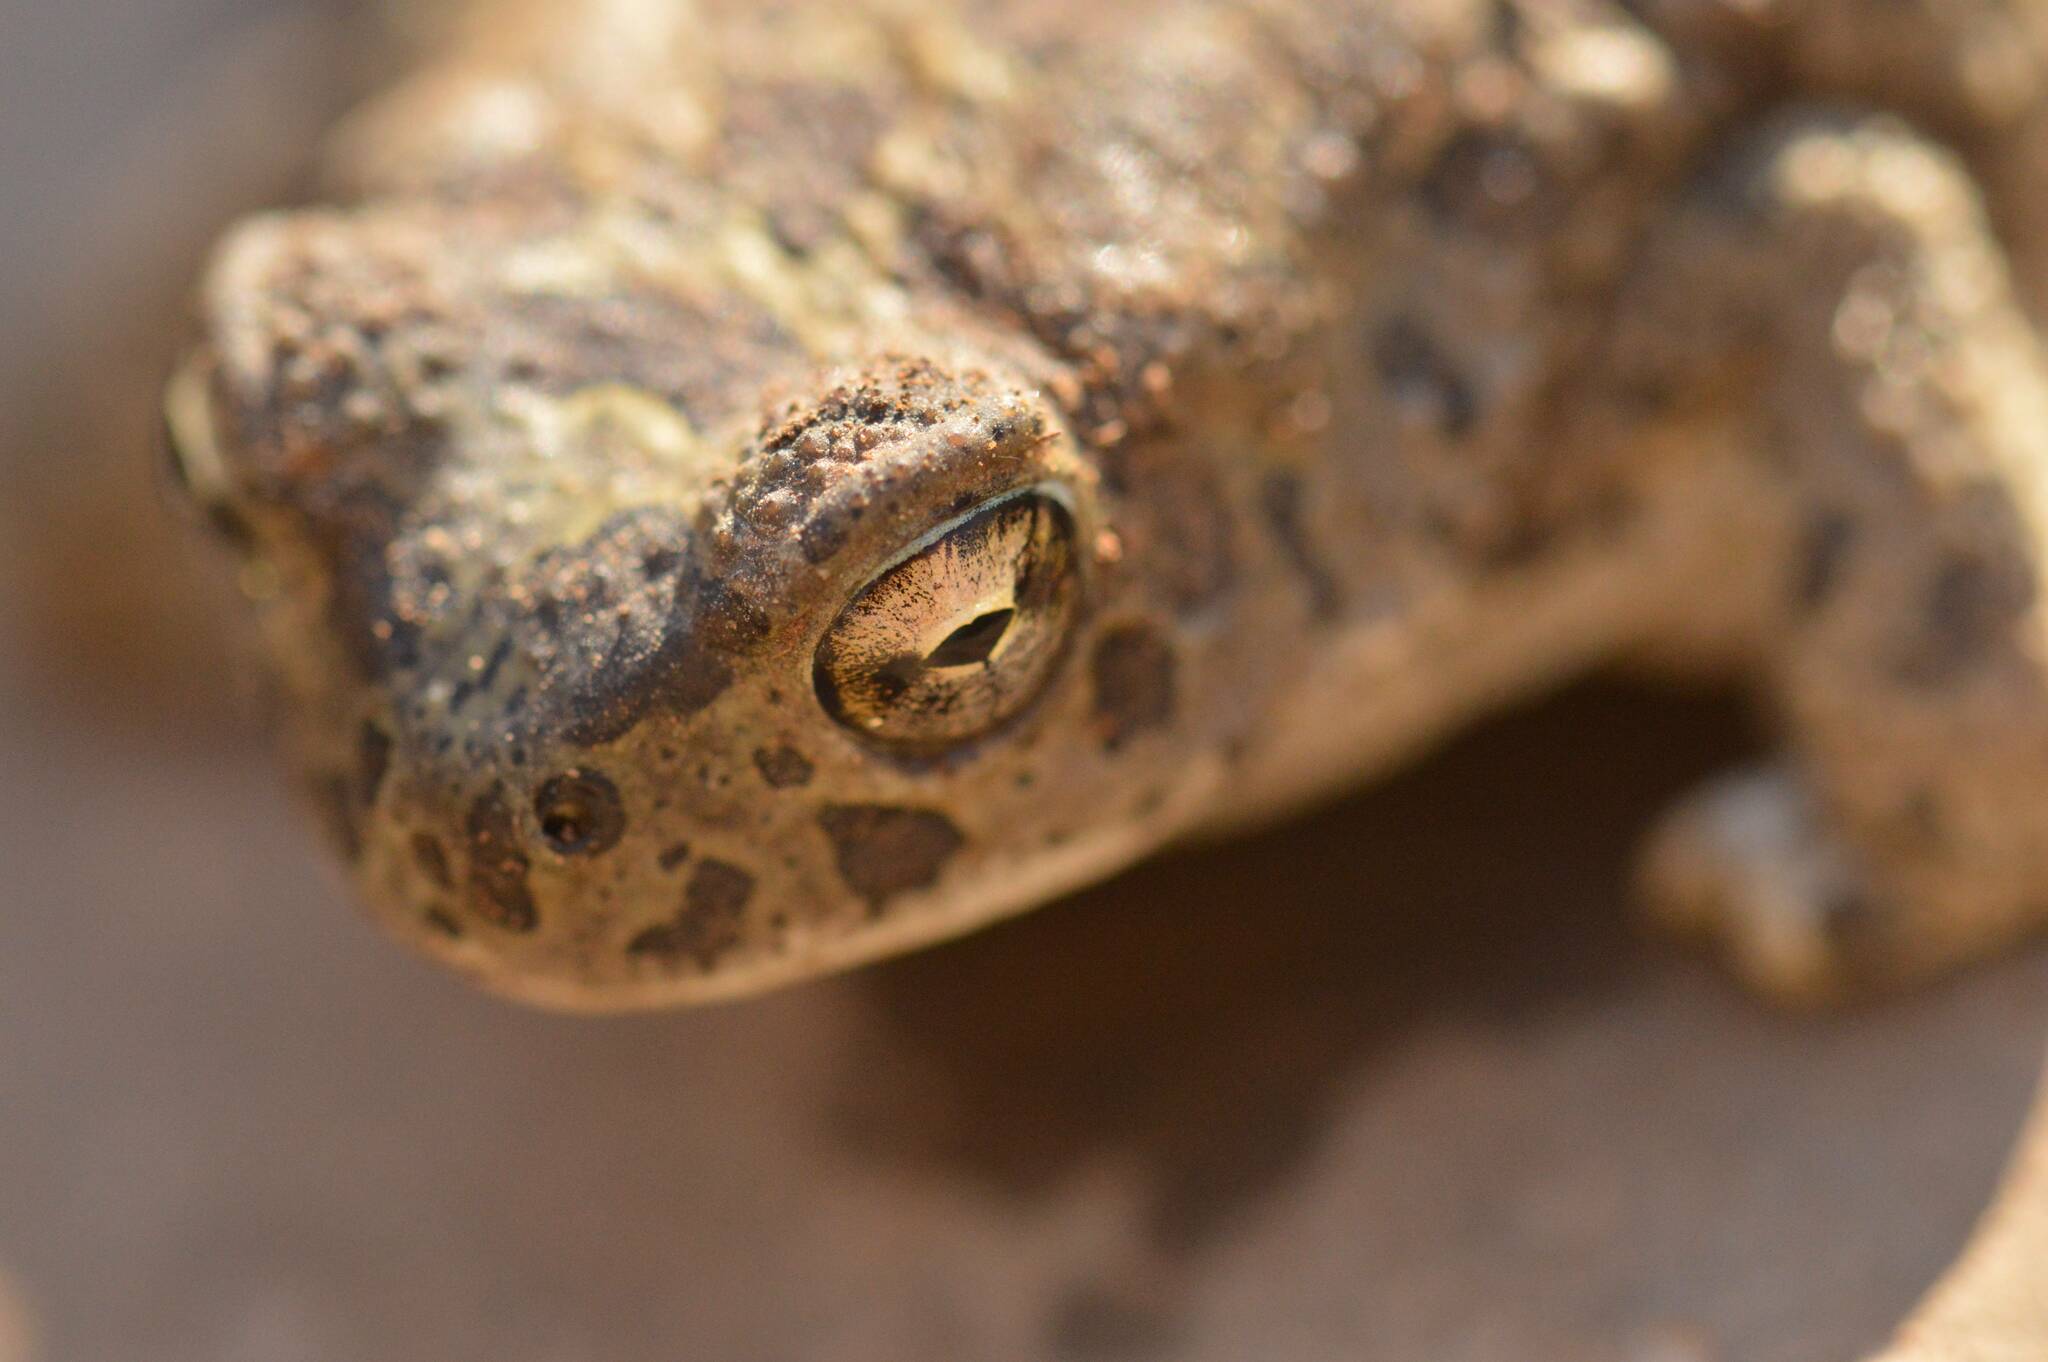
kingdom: Animalia
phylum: Chordata
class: Amphibia
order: Anura
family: Bufonidae
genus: Sclerophrys
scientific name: Sclerophrys mauritanica
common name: Berber toad
